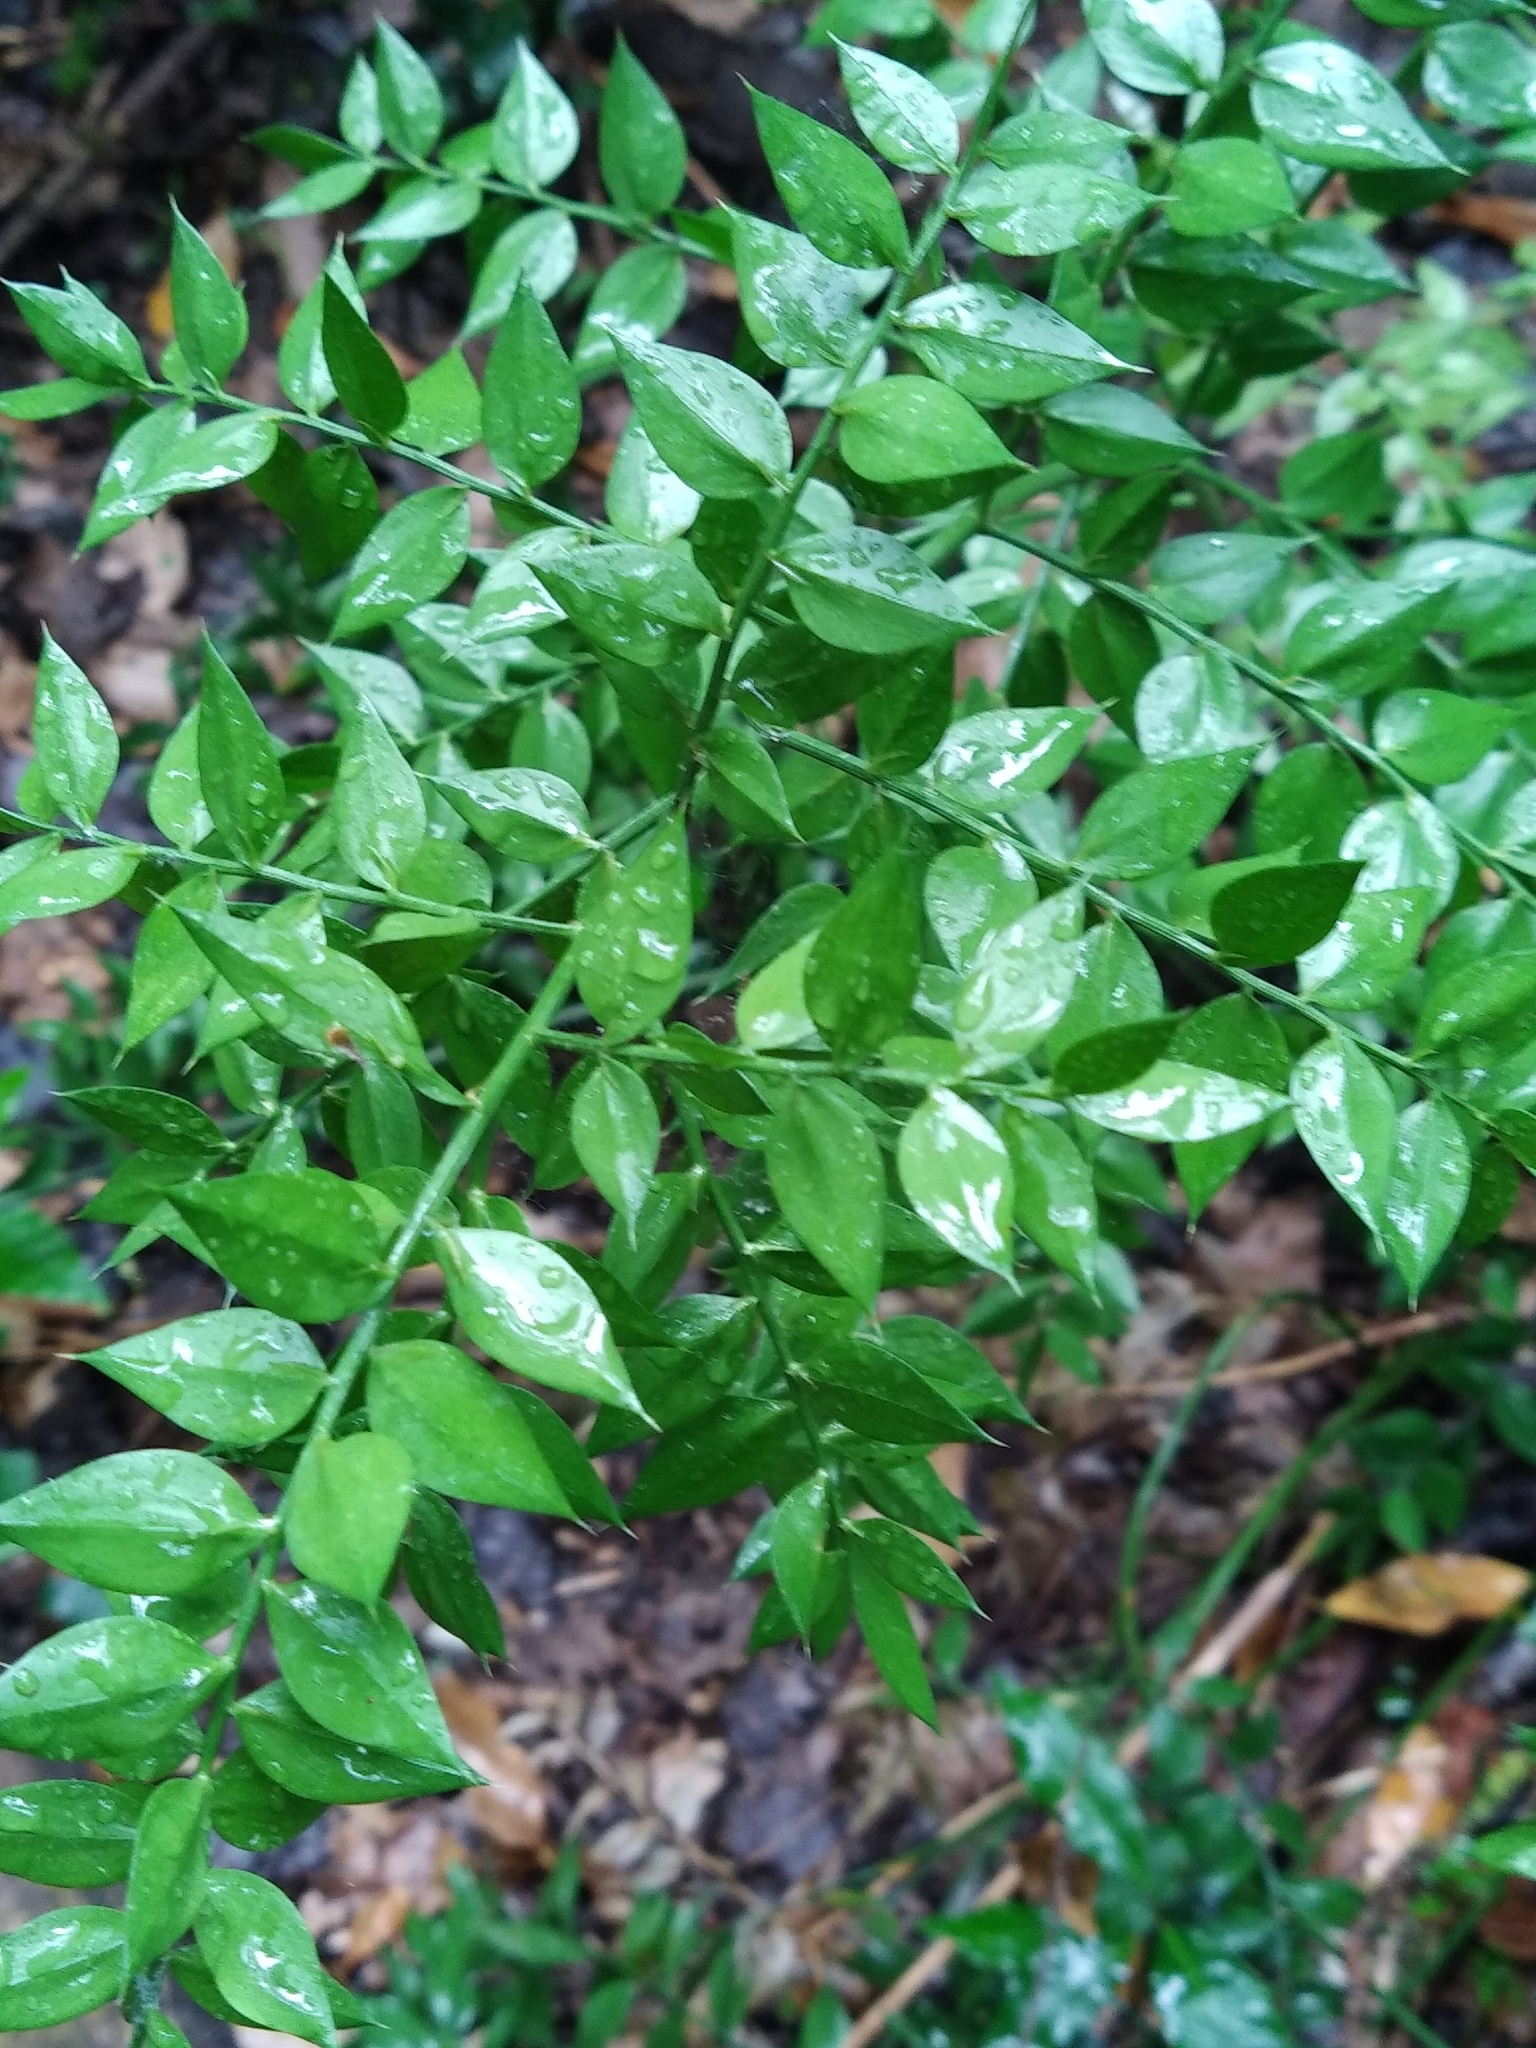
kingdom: Plantae
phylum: Tracheophyta
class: Liliopsida
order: Asparagales
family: Asparagaceae
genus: Ruscus
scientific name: Ruscus aculeatus
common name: Butcher's-broom
